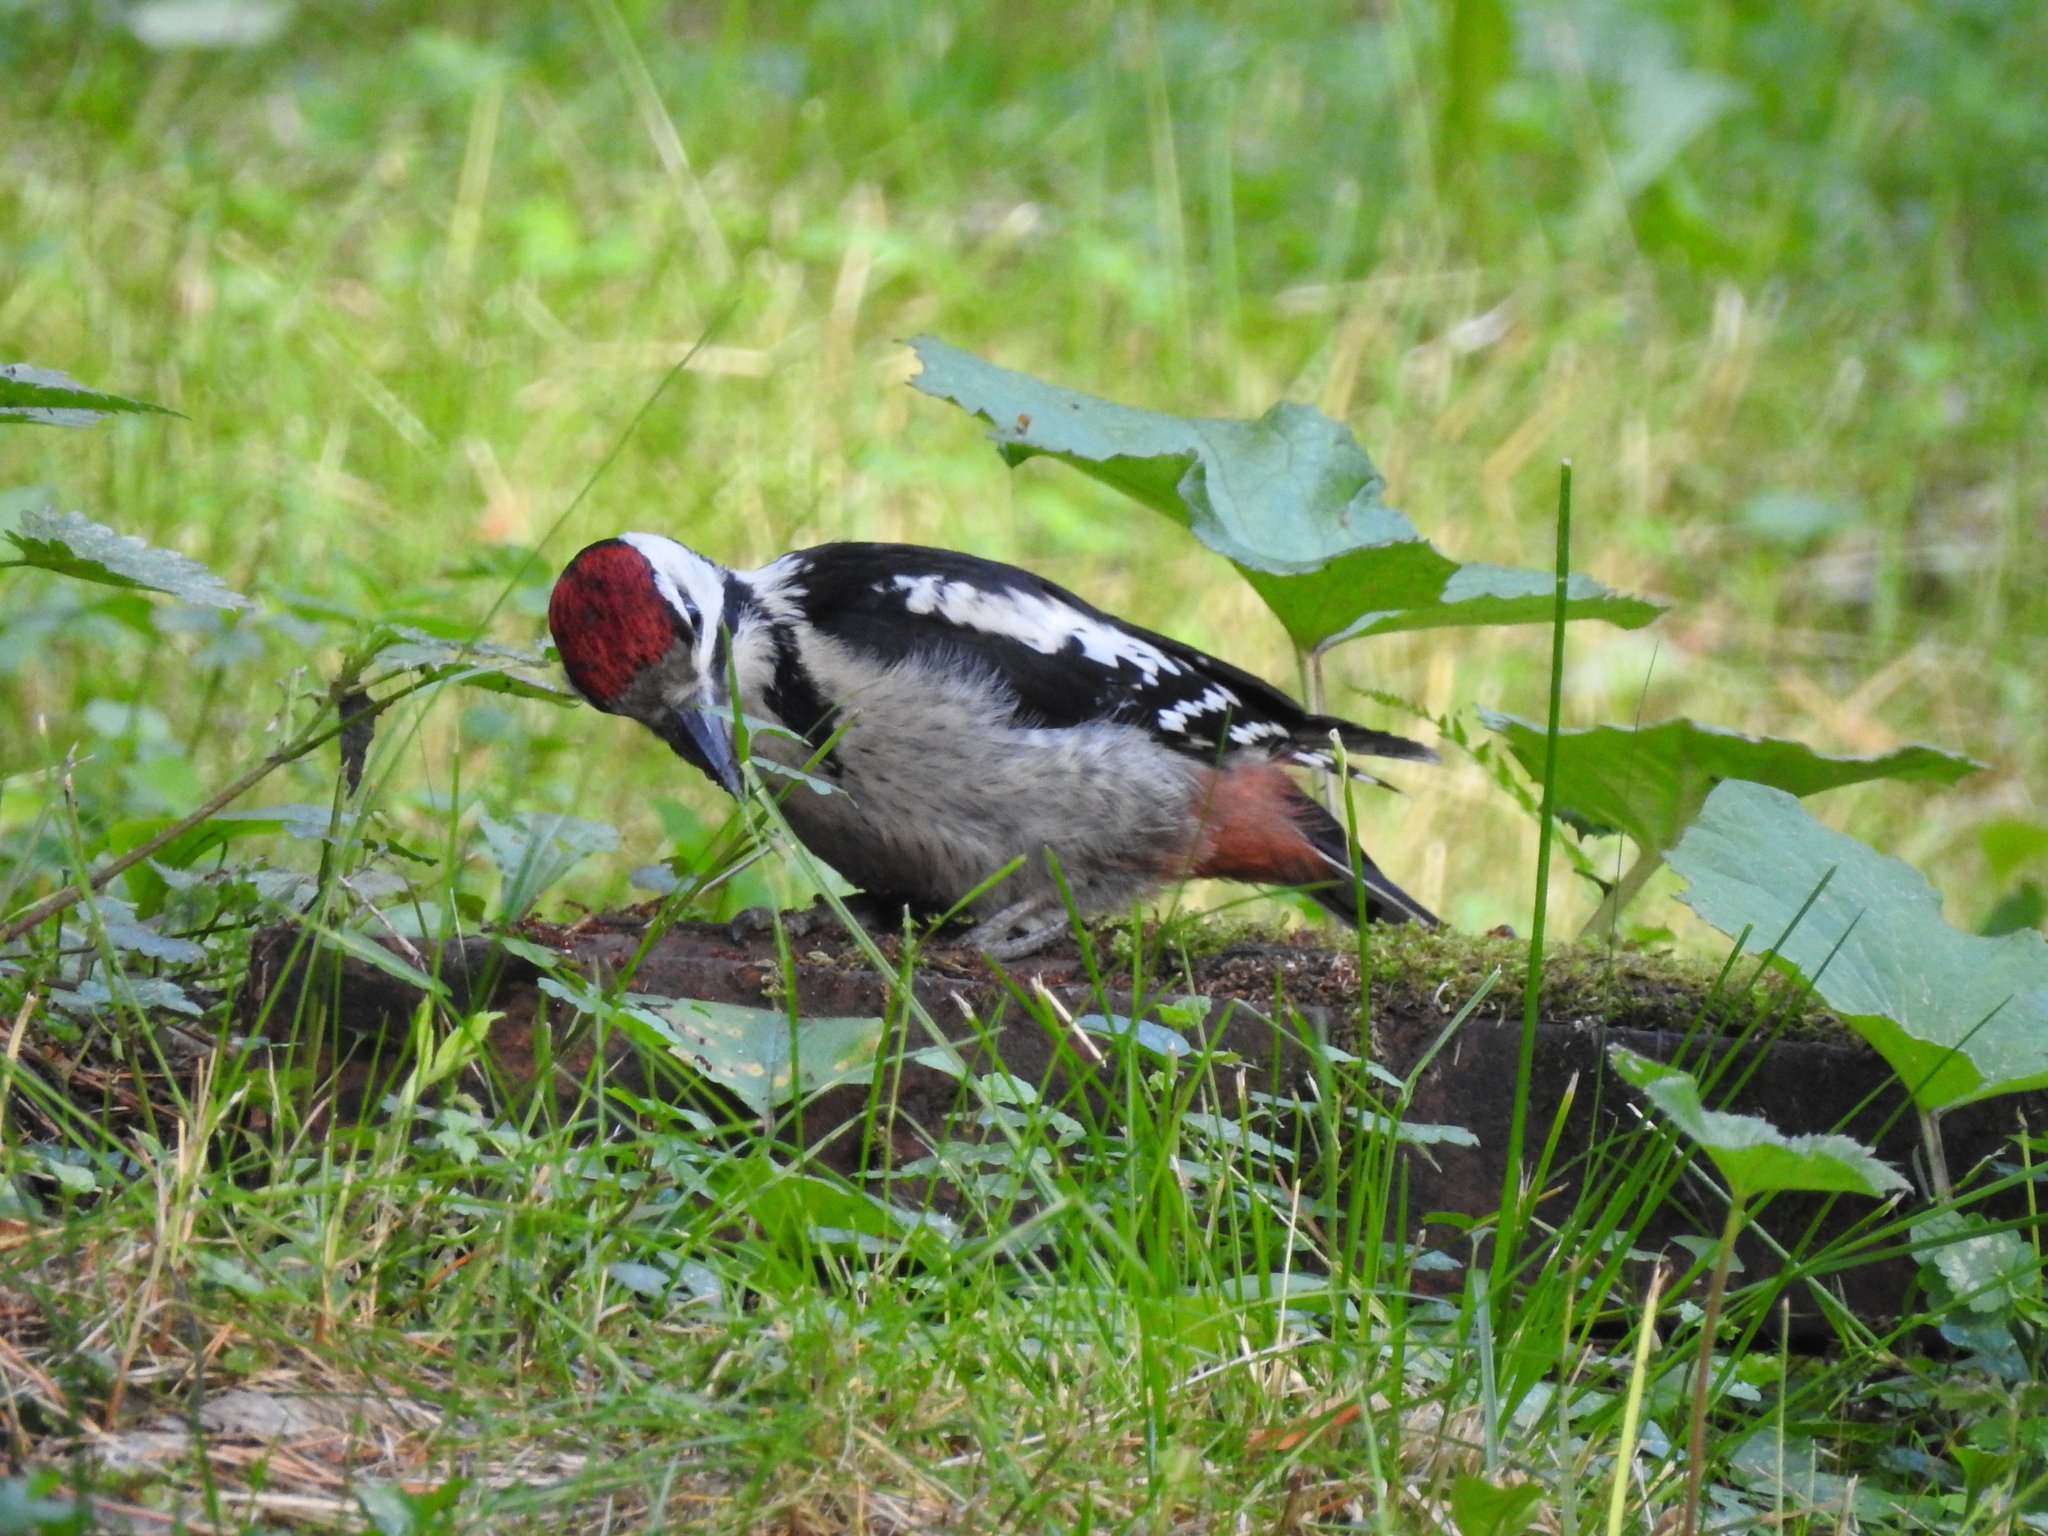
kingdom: Animalia
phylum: Chordata
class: Aves
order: Piciformes
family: Picidae
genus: Dendrocopos
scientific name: Dendrocopos major
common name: Great spotted woodpecker
